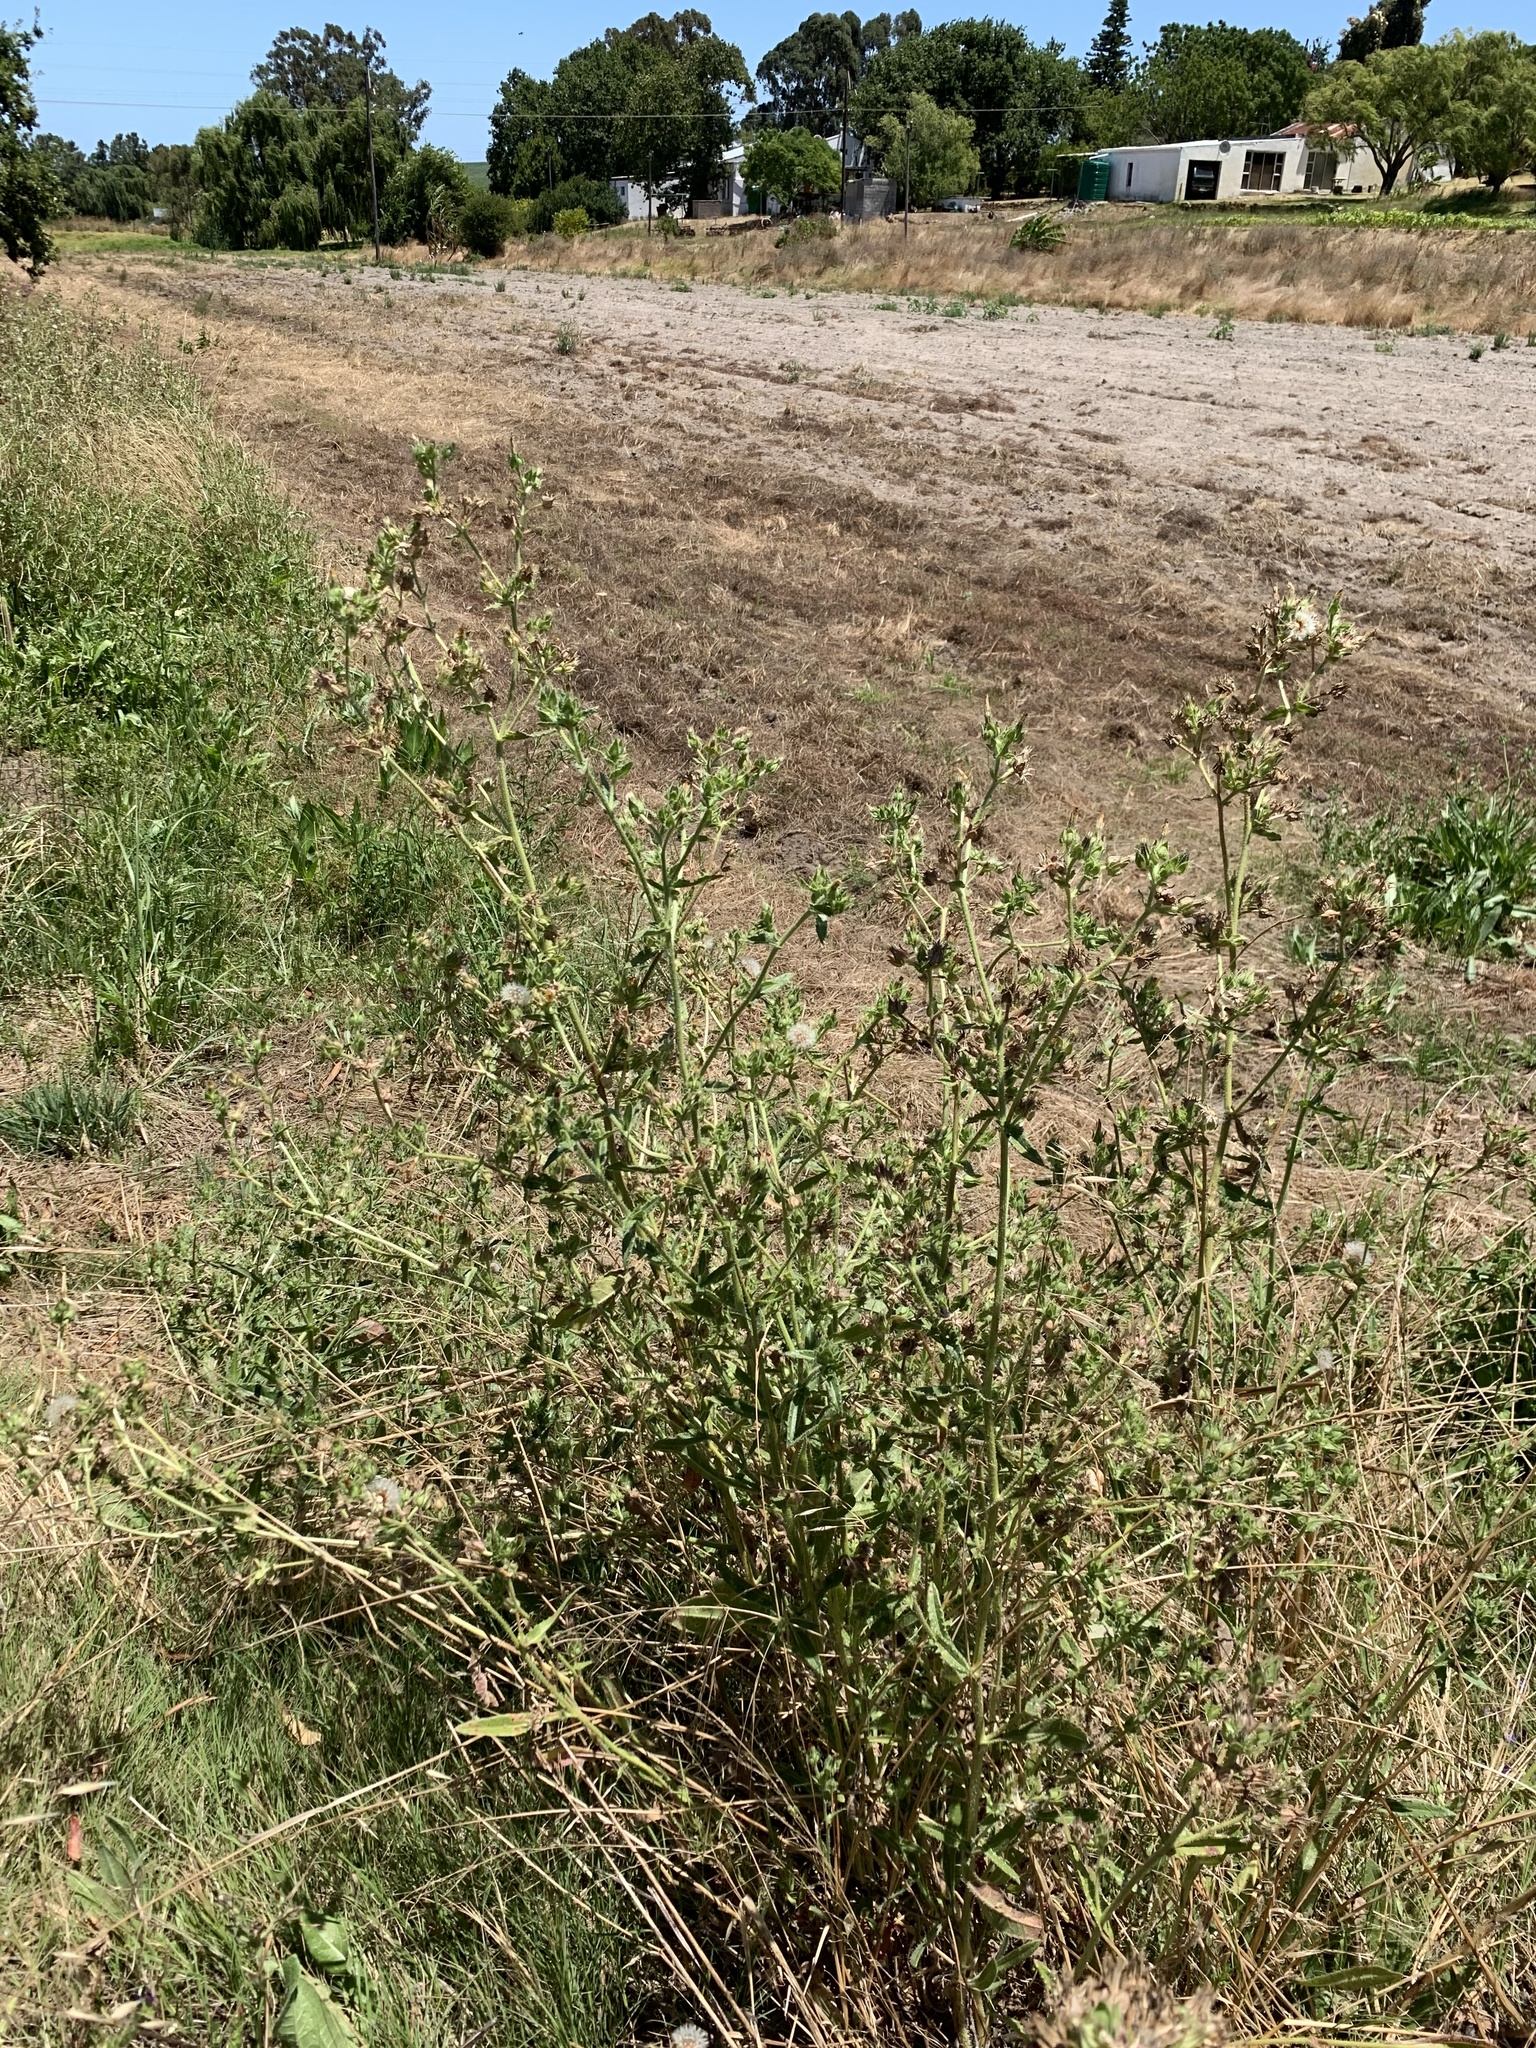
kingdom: Plantae
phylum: Tracheophyta
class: Magnoliopsida
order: Asterales
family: Asteraceae
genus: Helminthotheca
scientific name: Helminthotheca echioides
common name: Ox-tongue
